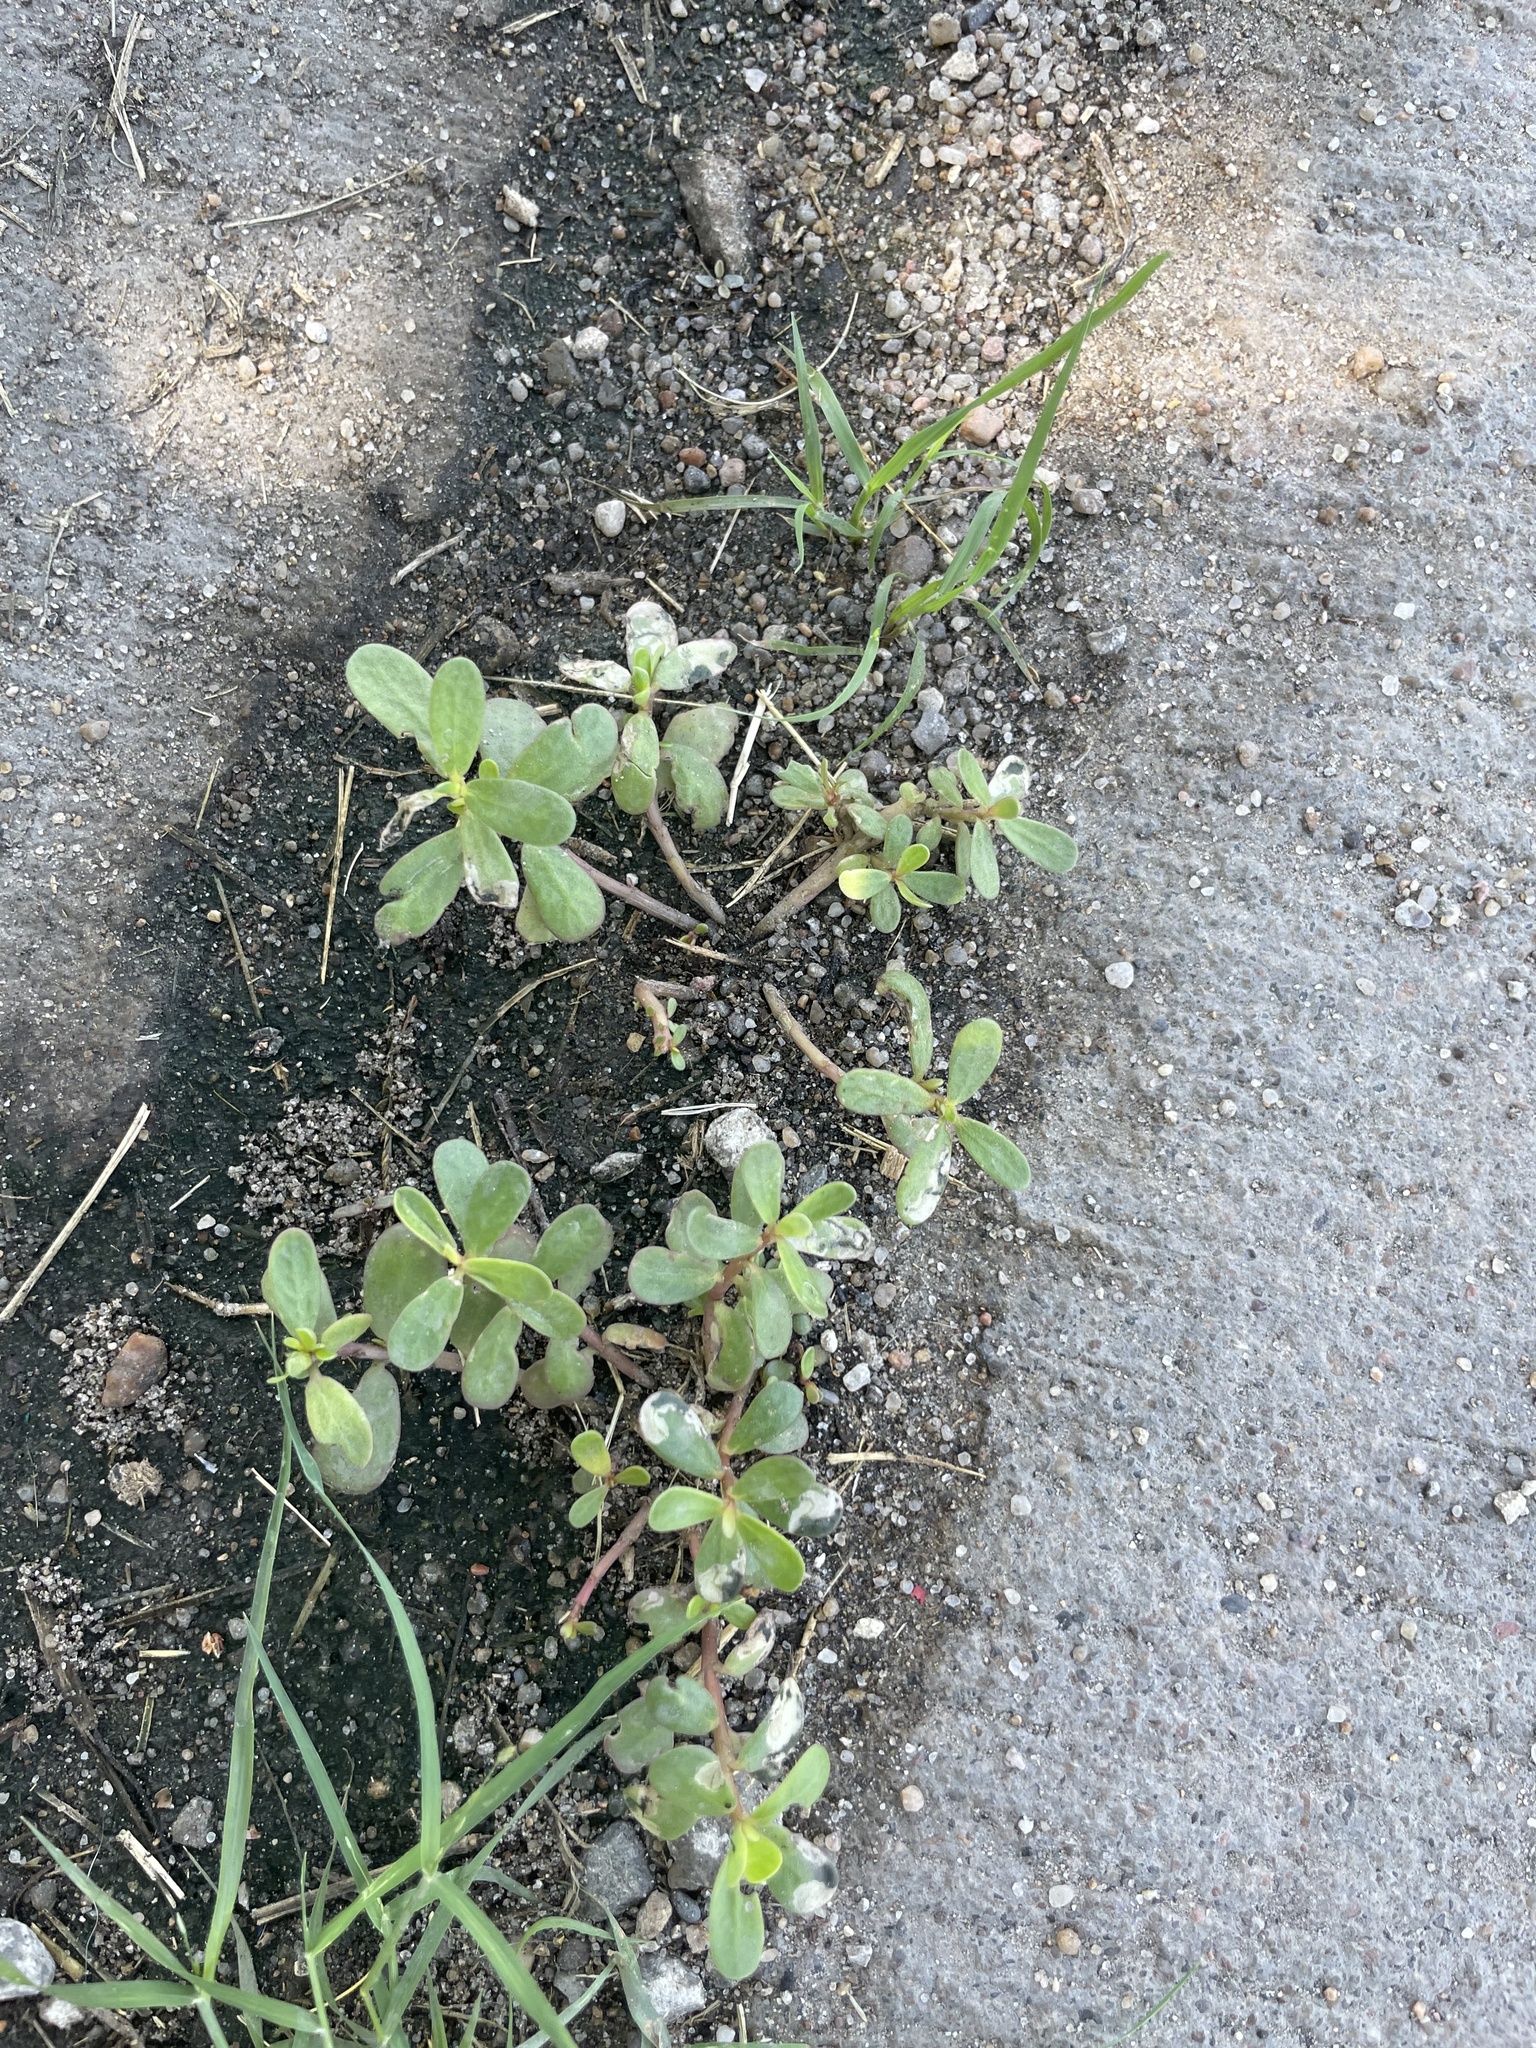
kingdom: Plantae
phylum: Tracheophyta
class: Magnoliopsida
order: Caryophyllales
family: Portulacaceae
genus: Portulaca
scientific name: Portulaca oleracea
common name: Common purslane
